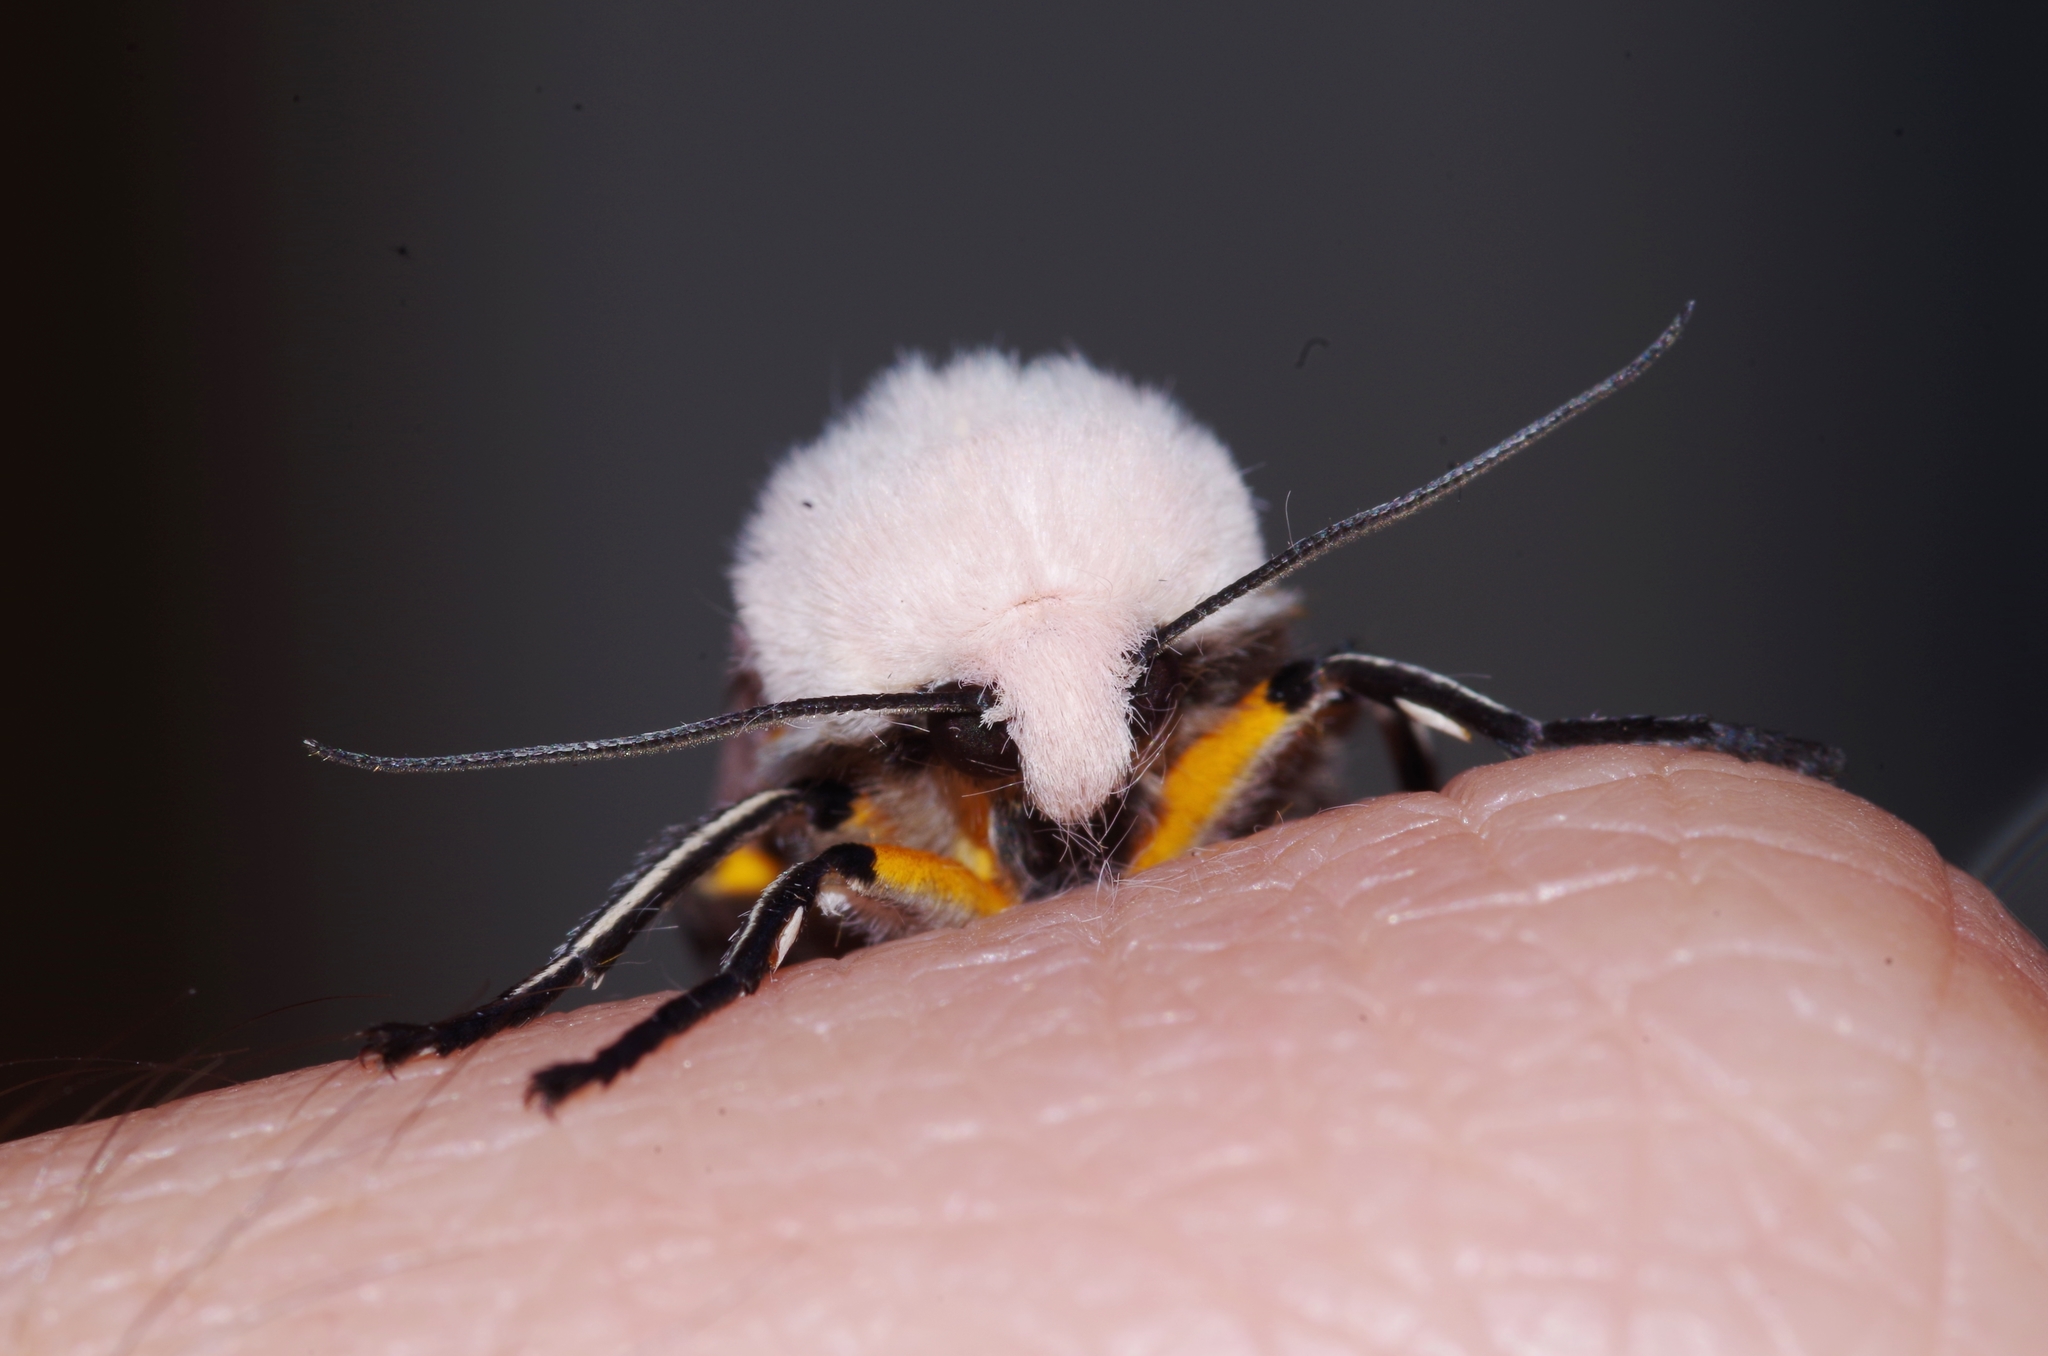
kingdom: Animalia
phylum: Arthropoda
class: Insecta
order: Lepidoptera
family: Erebidae
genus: Creatonotos
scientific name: Creatonotos transiens
